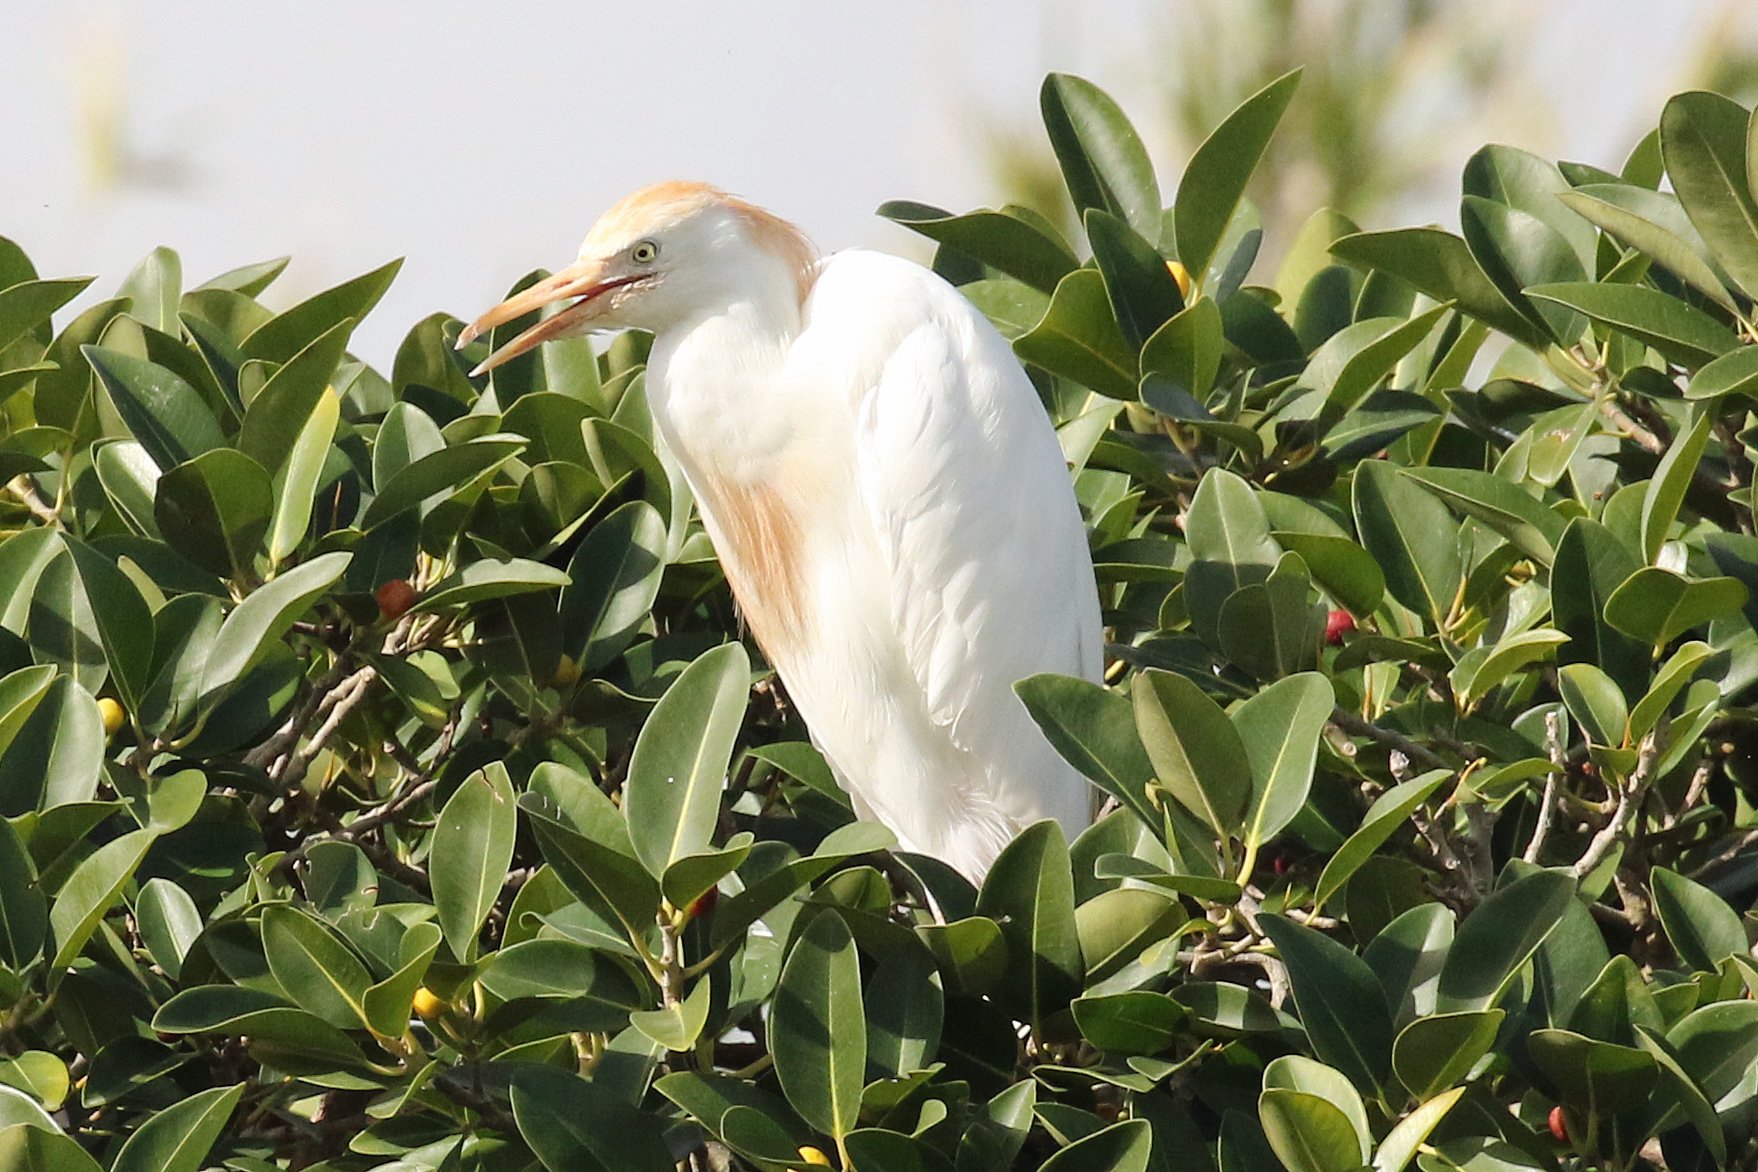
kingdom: Animalia
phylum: Chordata
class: Aves
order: Pelecaniformes
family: Ardeidae
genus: Bubulcus
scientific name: Bubulcus ibis
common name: Cattle egret
